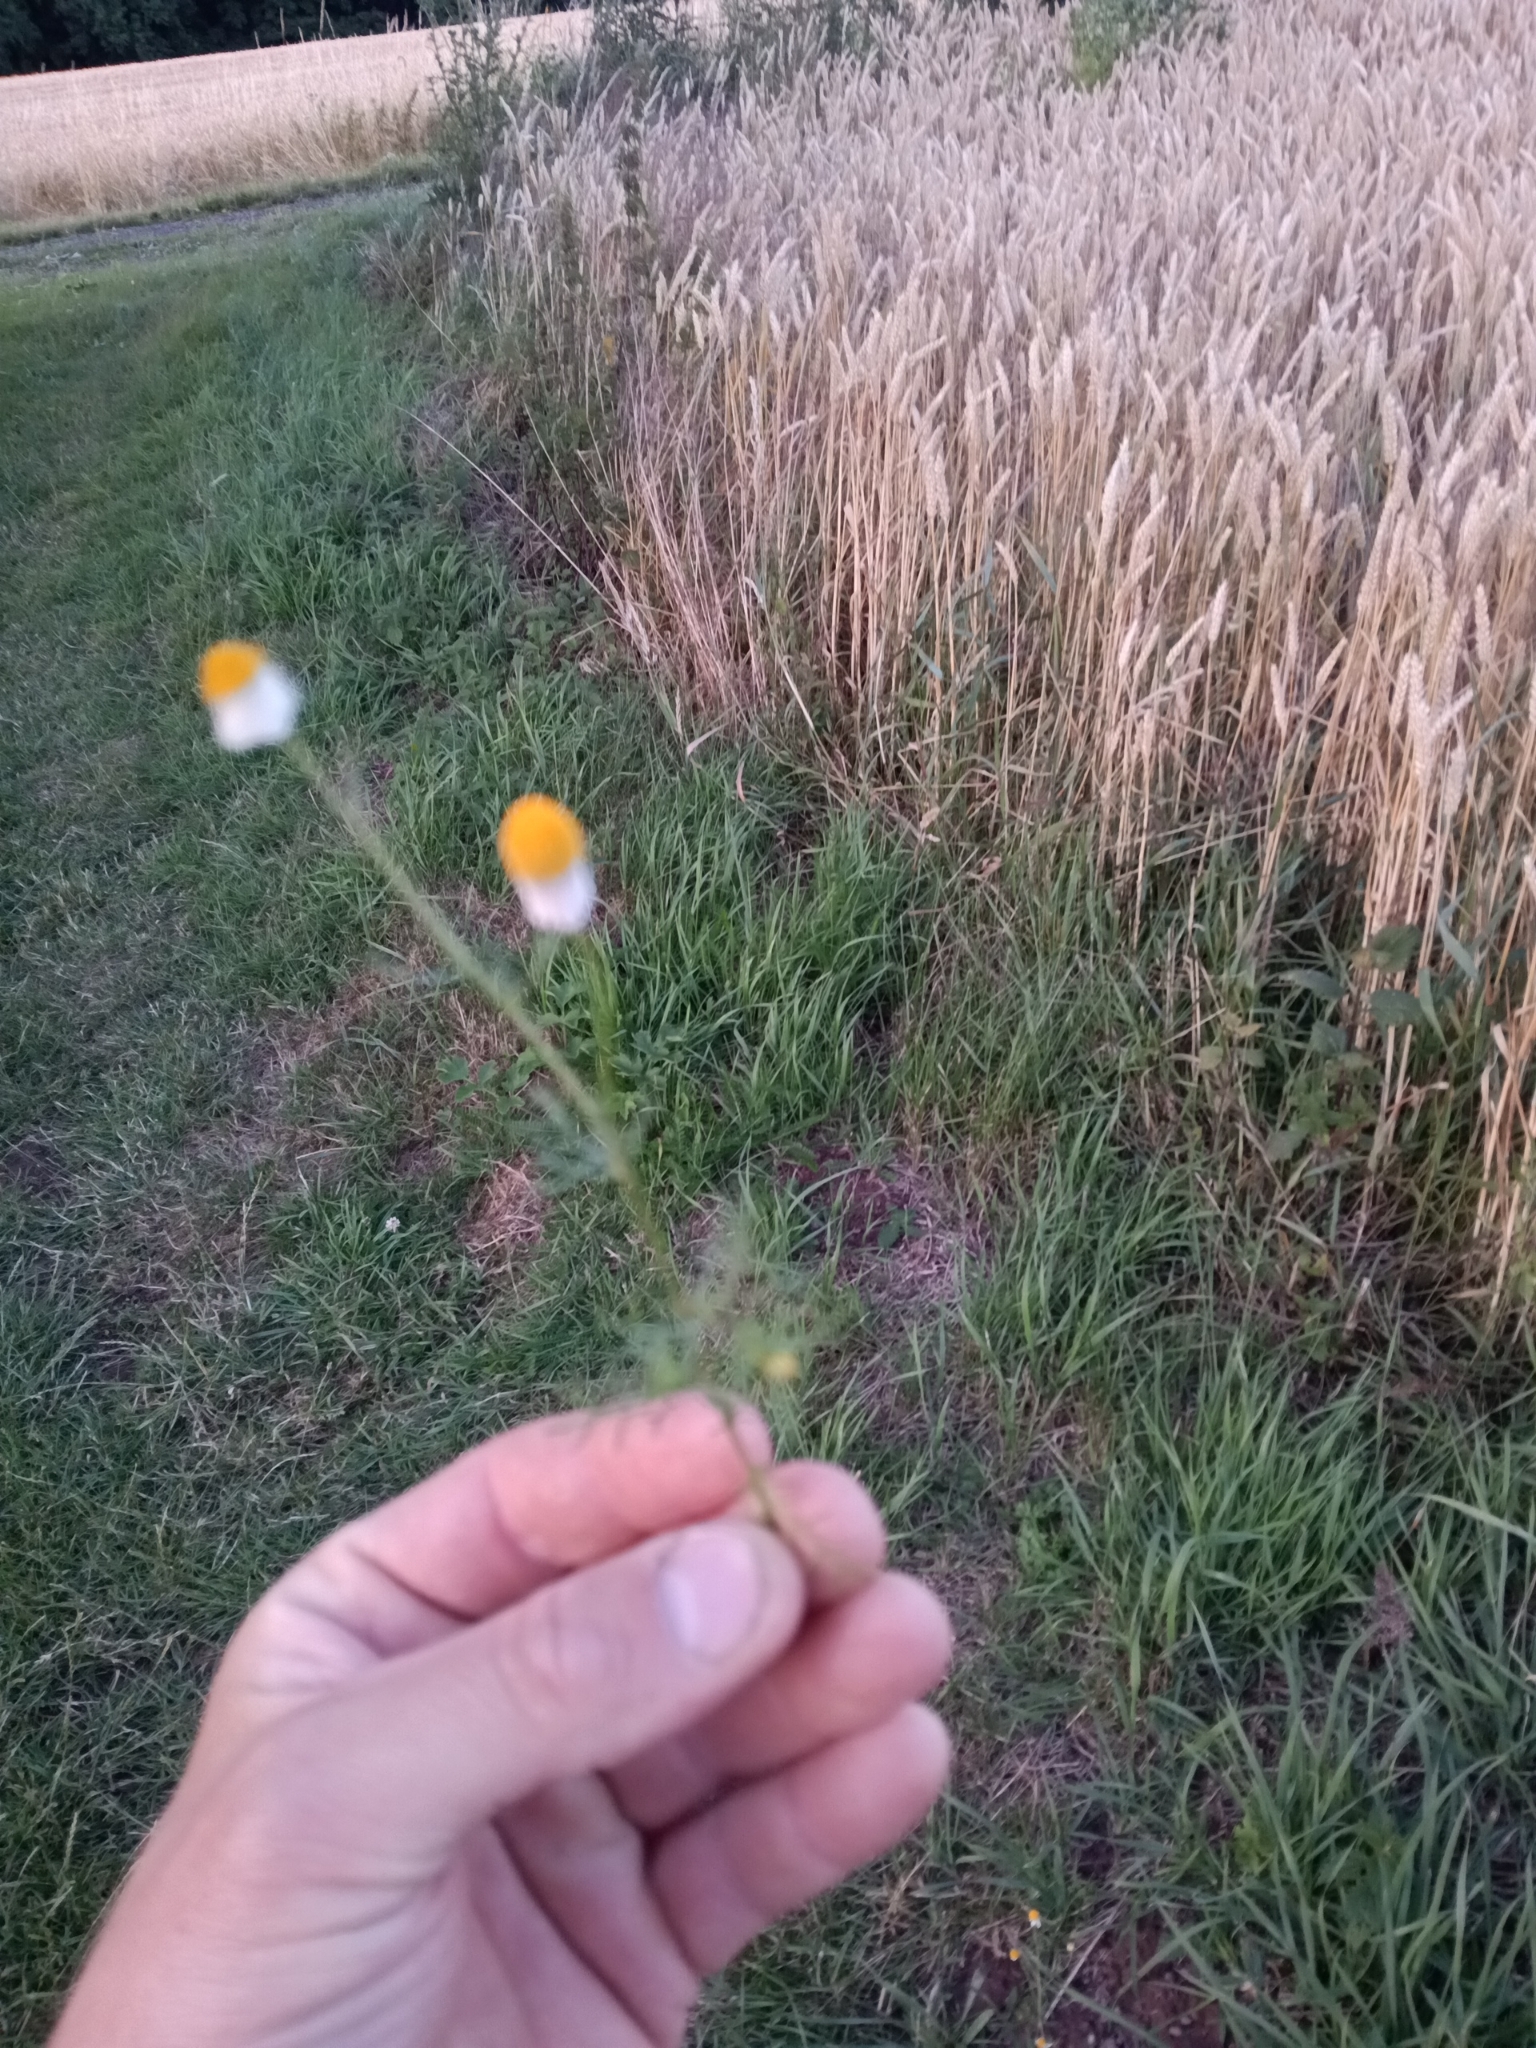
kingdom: Plantae
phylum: Tracheophyta
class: Magnoliopsida
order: Asterales
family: Asteraceae
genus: Matricaria
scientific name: Matricaria chamomilla
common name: Scented mayweed
